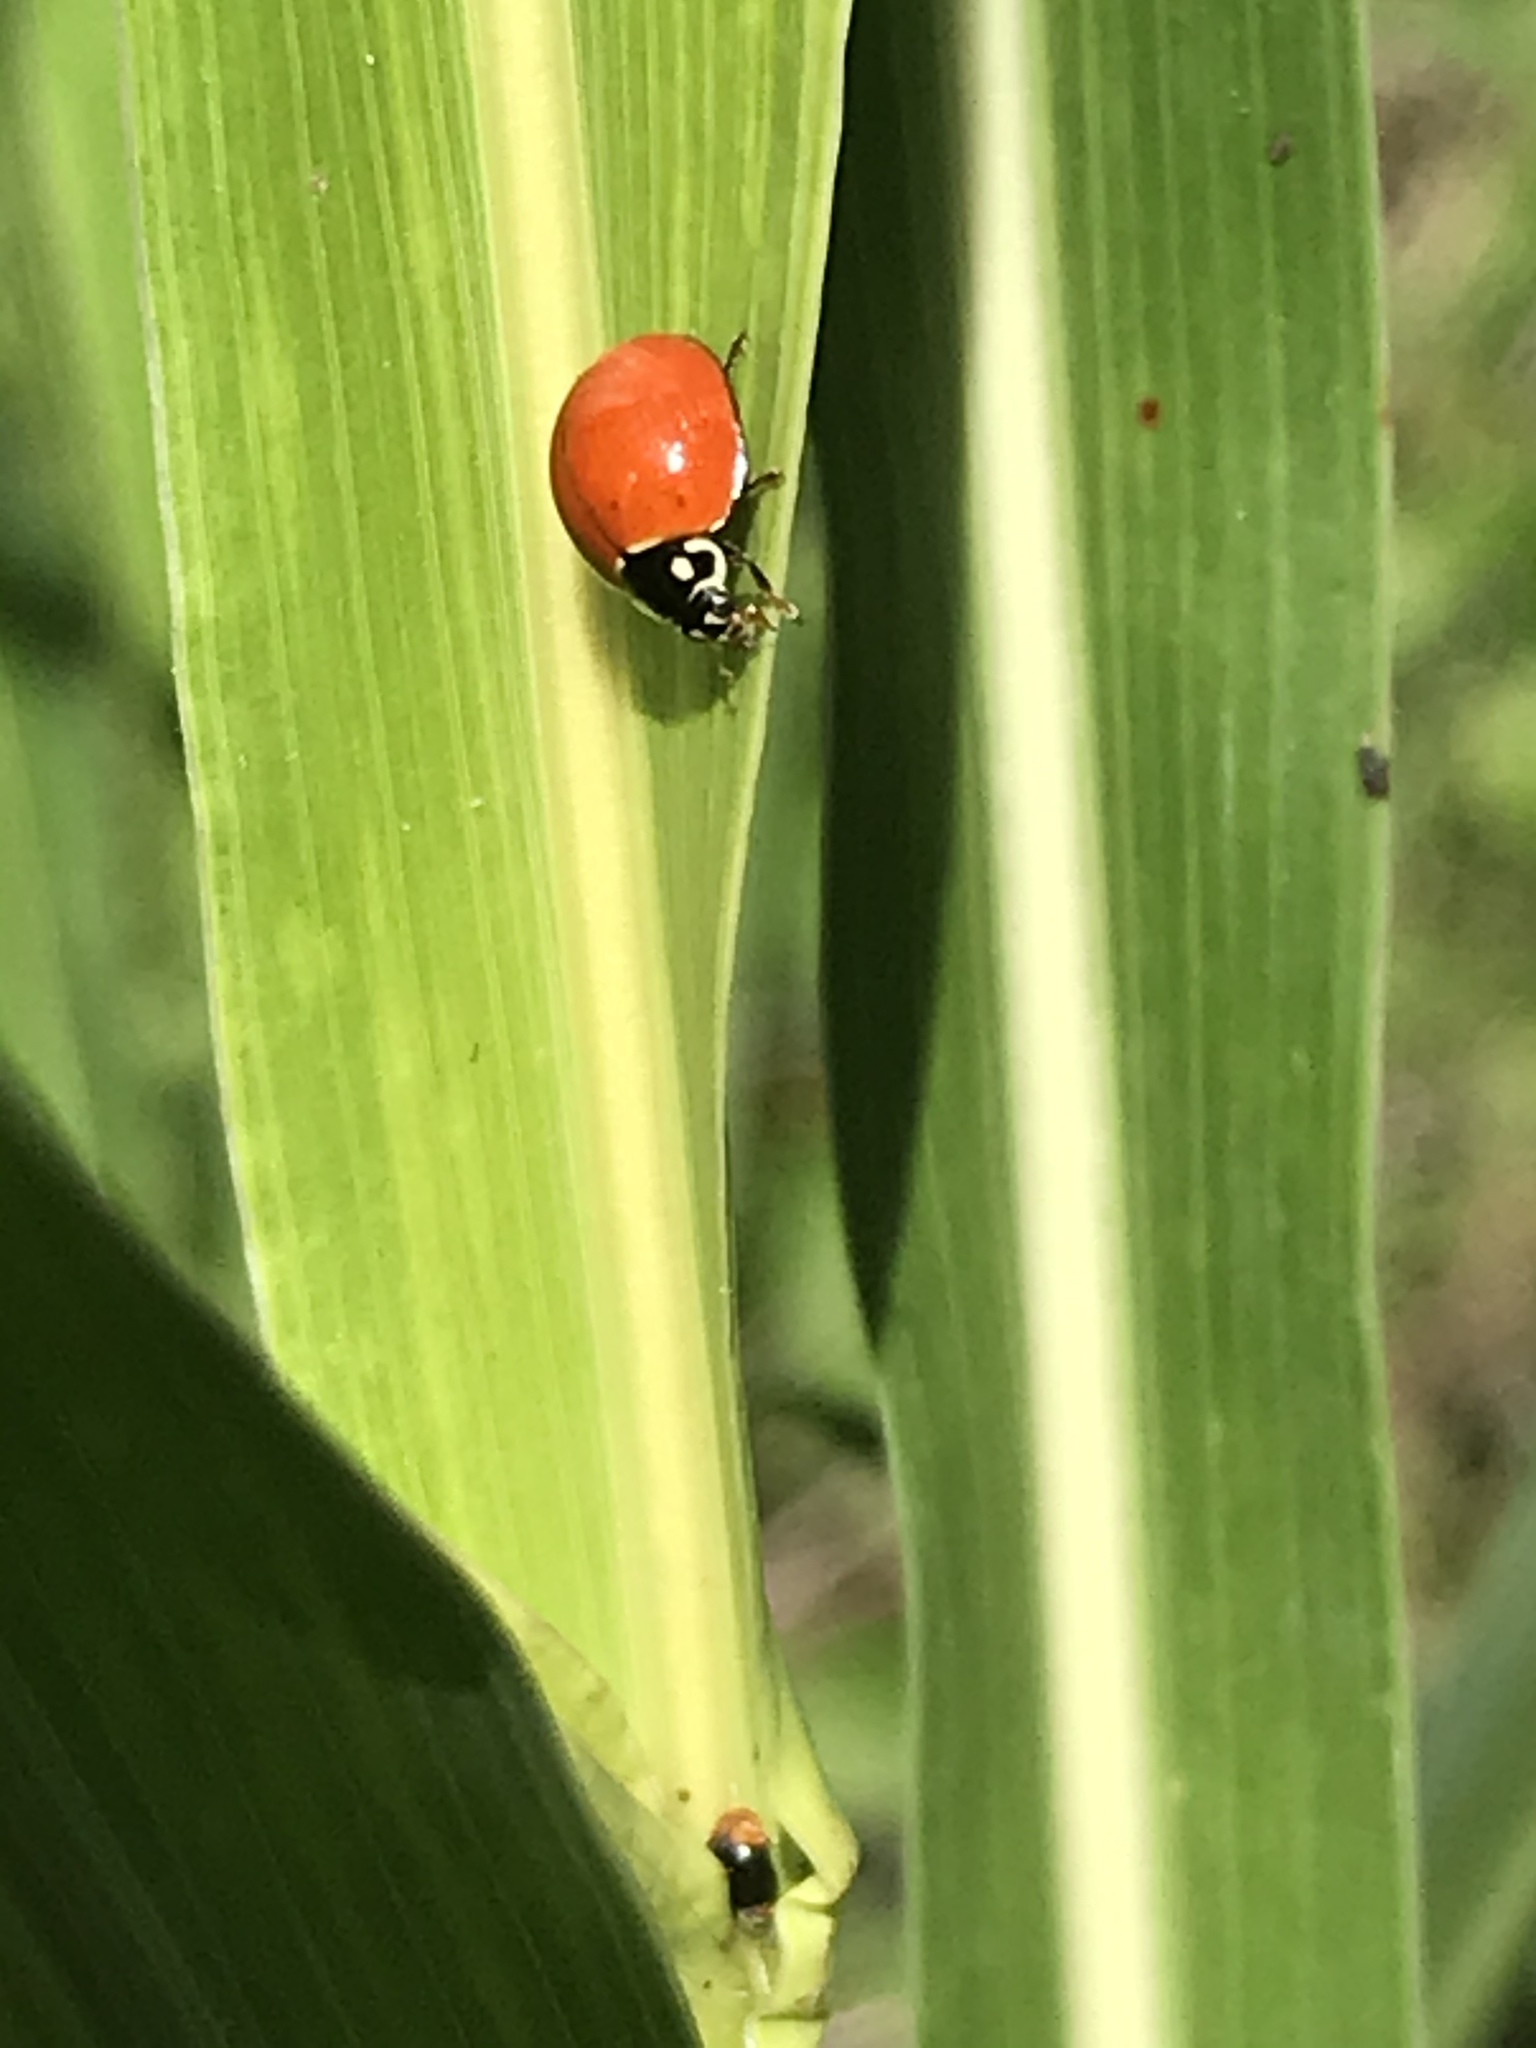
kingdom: Animalia
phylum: Arthropoda
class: Insecta
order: Coleoptera
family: Coccinellidae
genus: Cycloneda
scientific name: Cycloneda sanguinea
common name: Ladybird beetle
